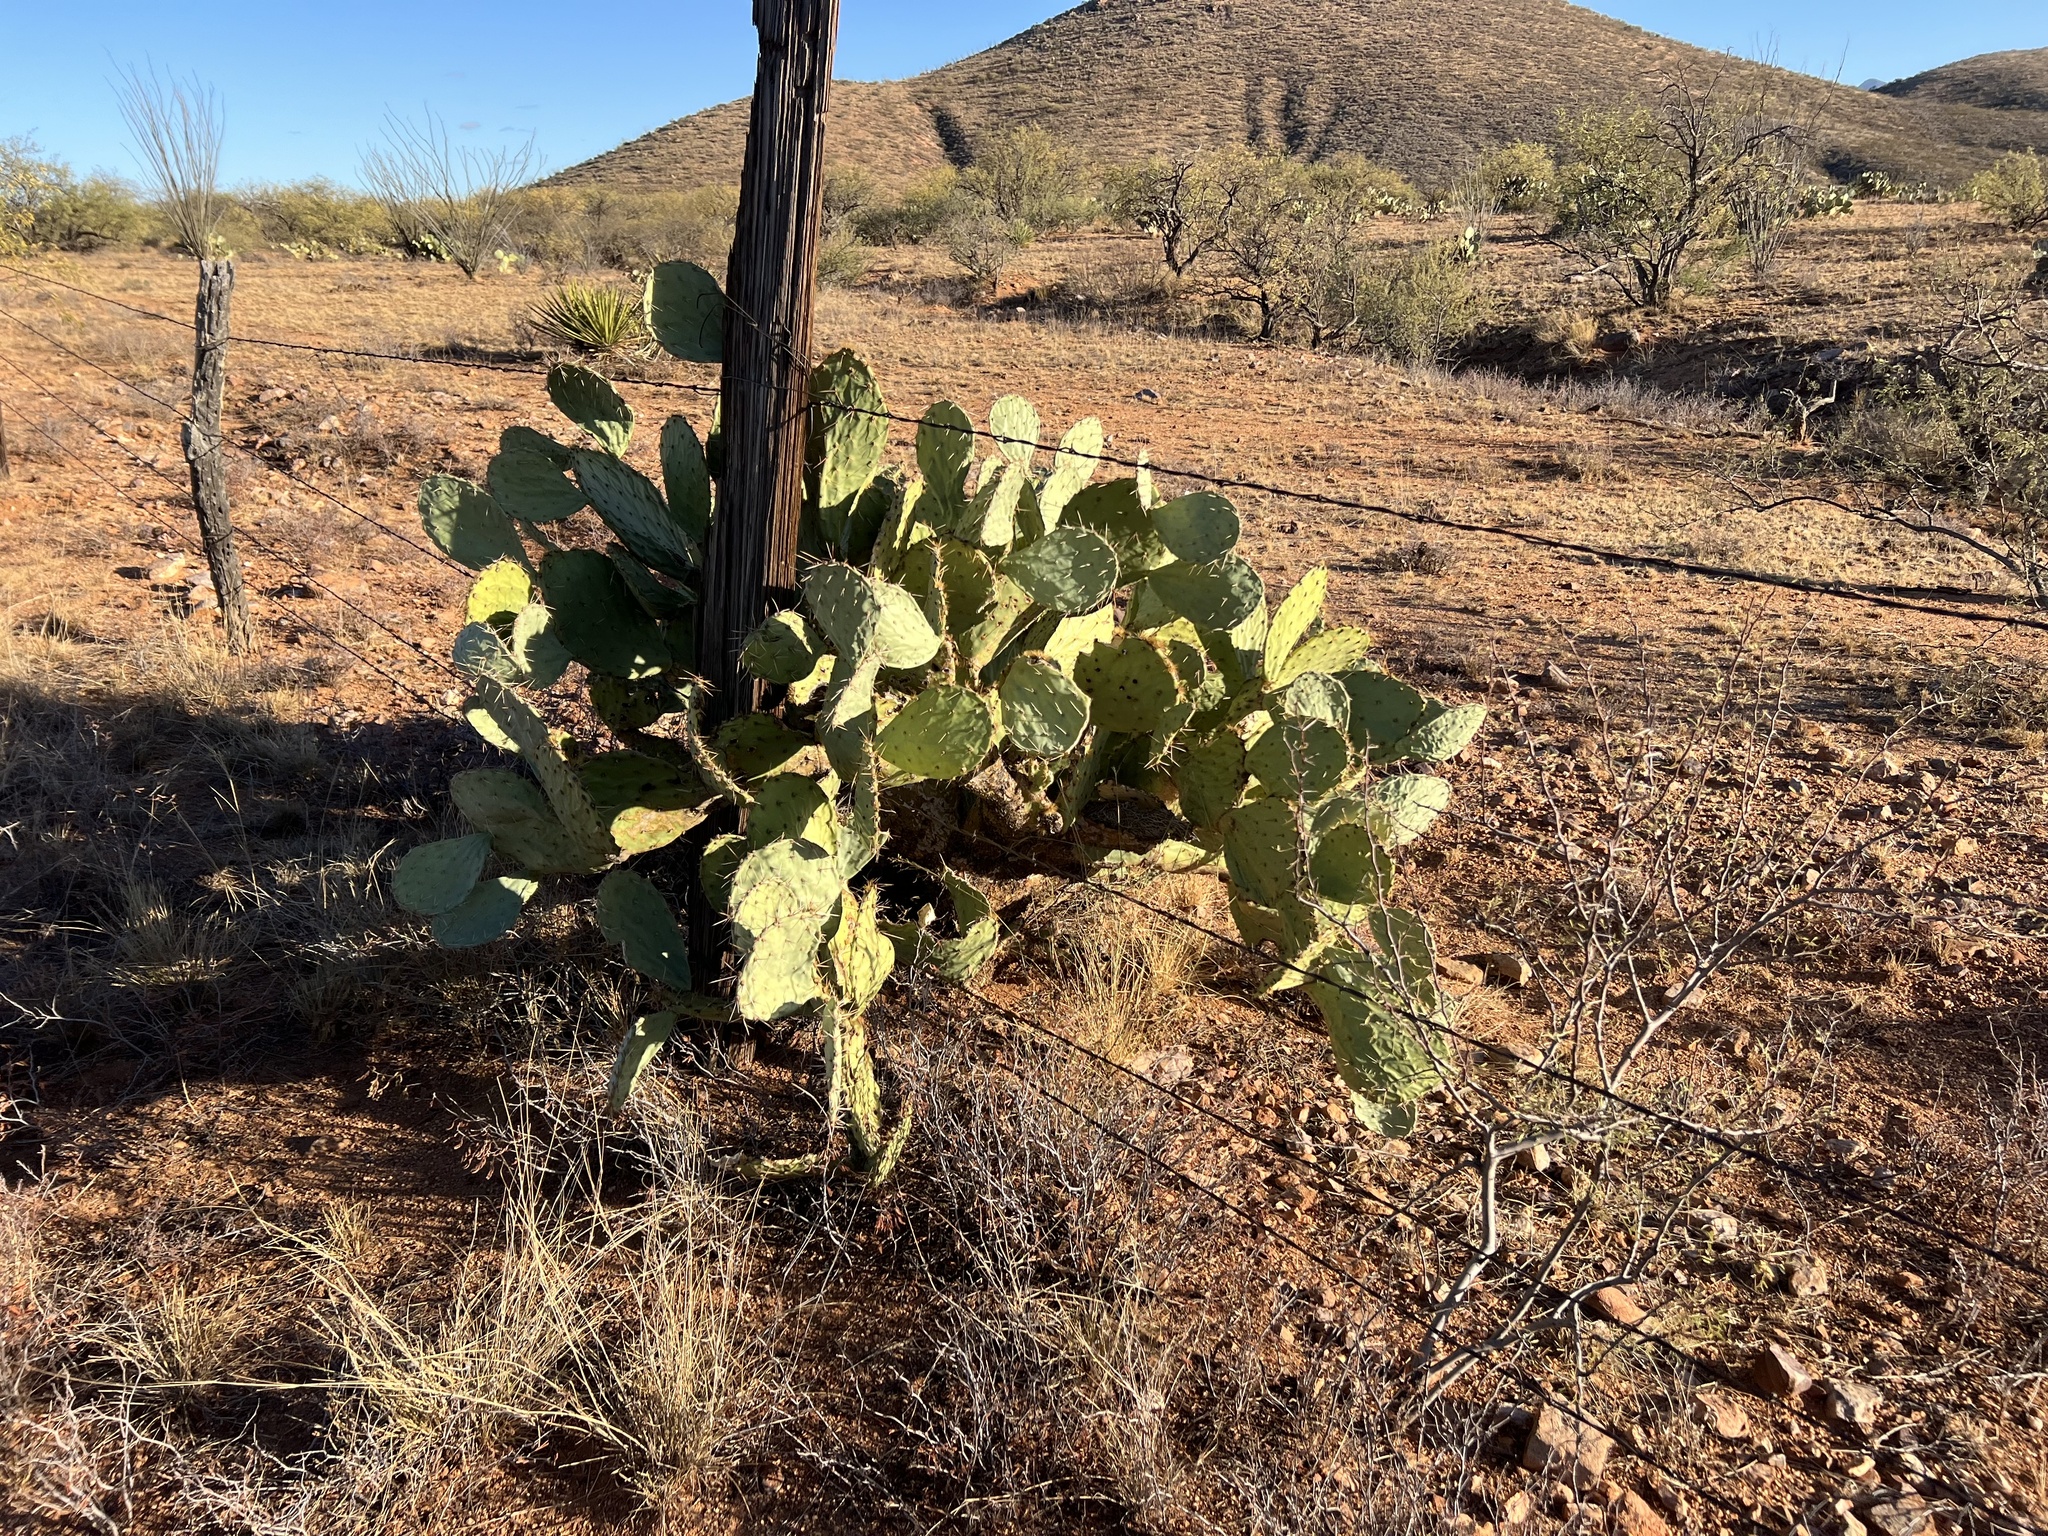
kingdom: Plantae
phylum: Tracheophyta
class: Magnoliopsida
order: Caryophyllales
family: Cactaceae
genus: Opuntia
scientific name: Opuntia engelmannii
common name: Cactus-apple
